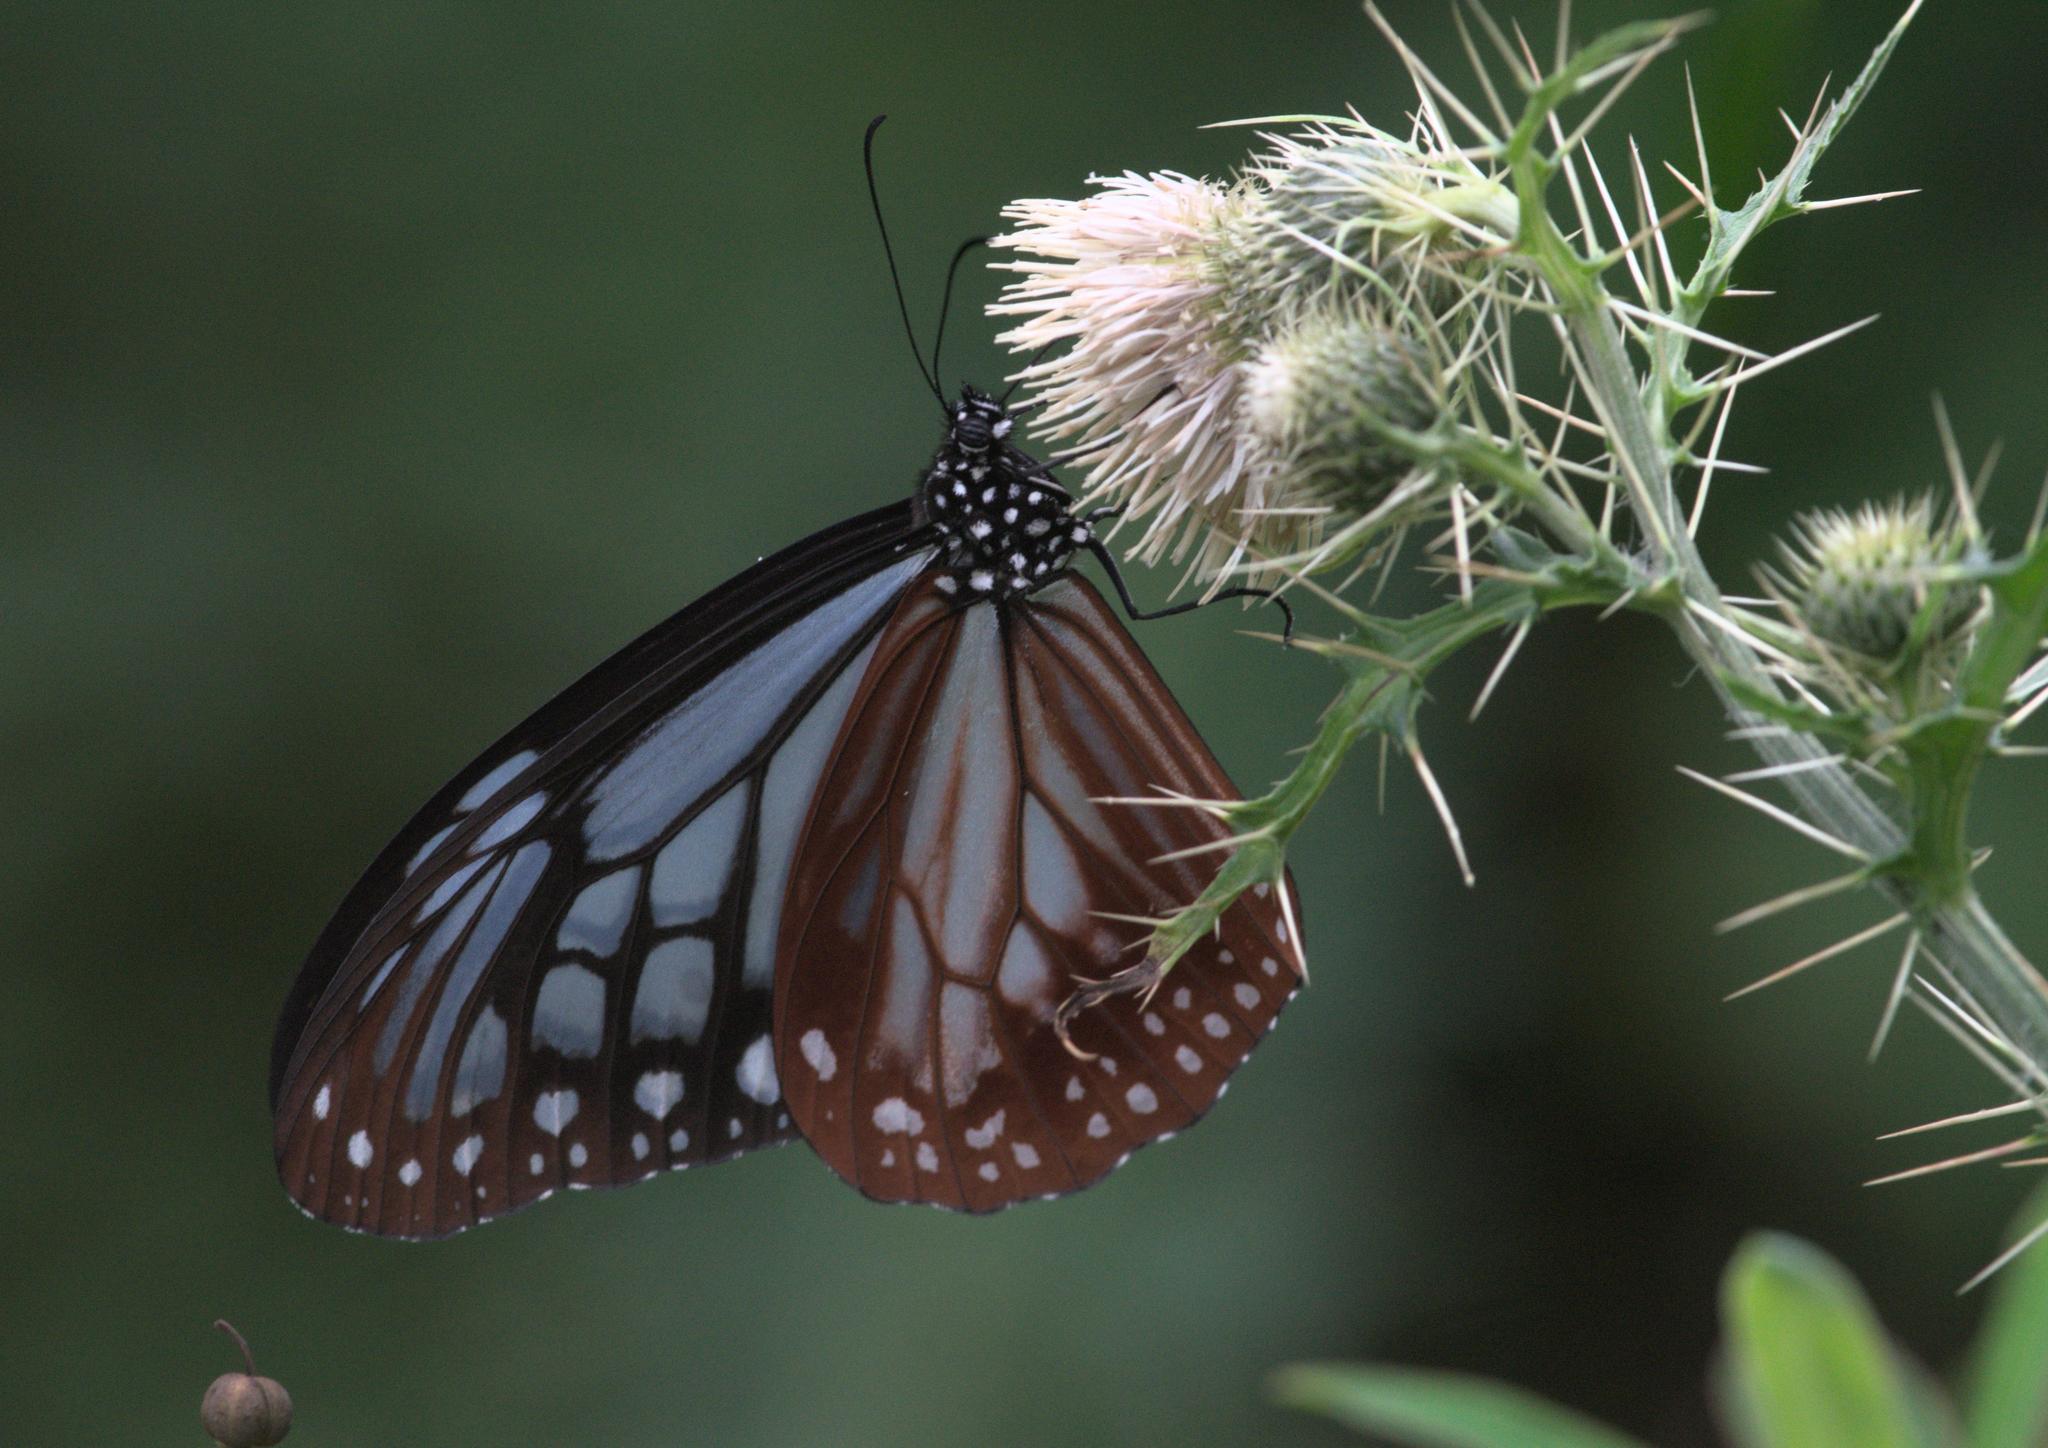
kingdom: Animalia
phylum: Arthropoda
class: Insecta
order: Lepidoptera
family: Nymphalidae
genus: Parantica
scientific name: Parantica sita
